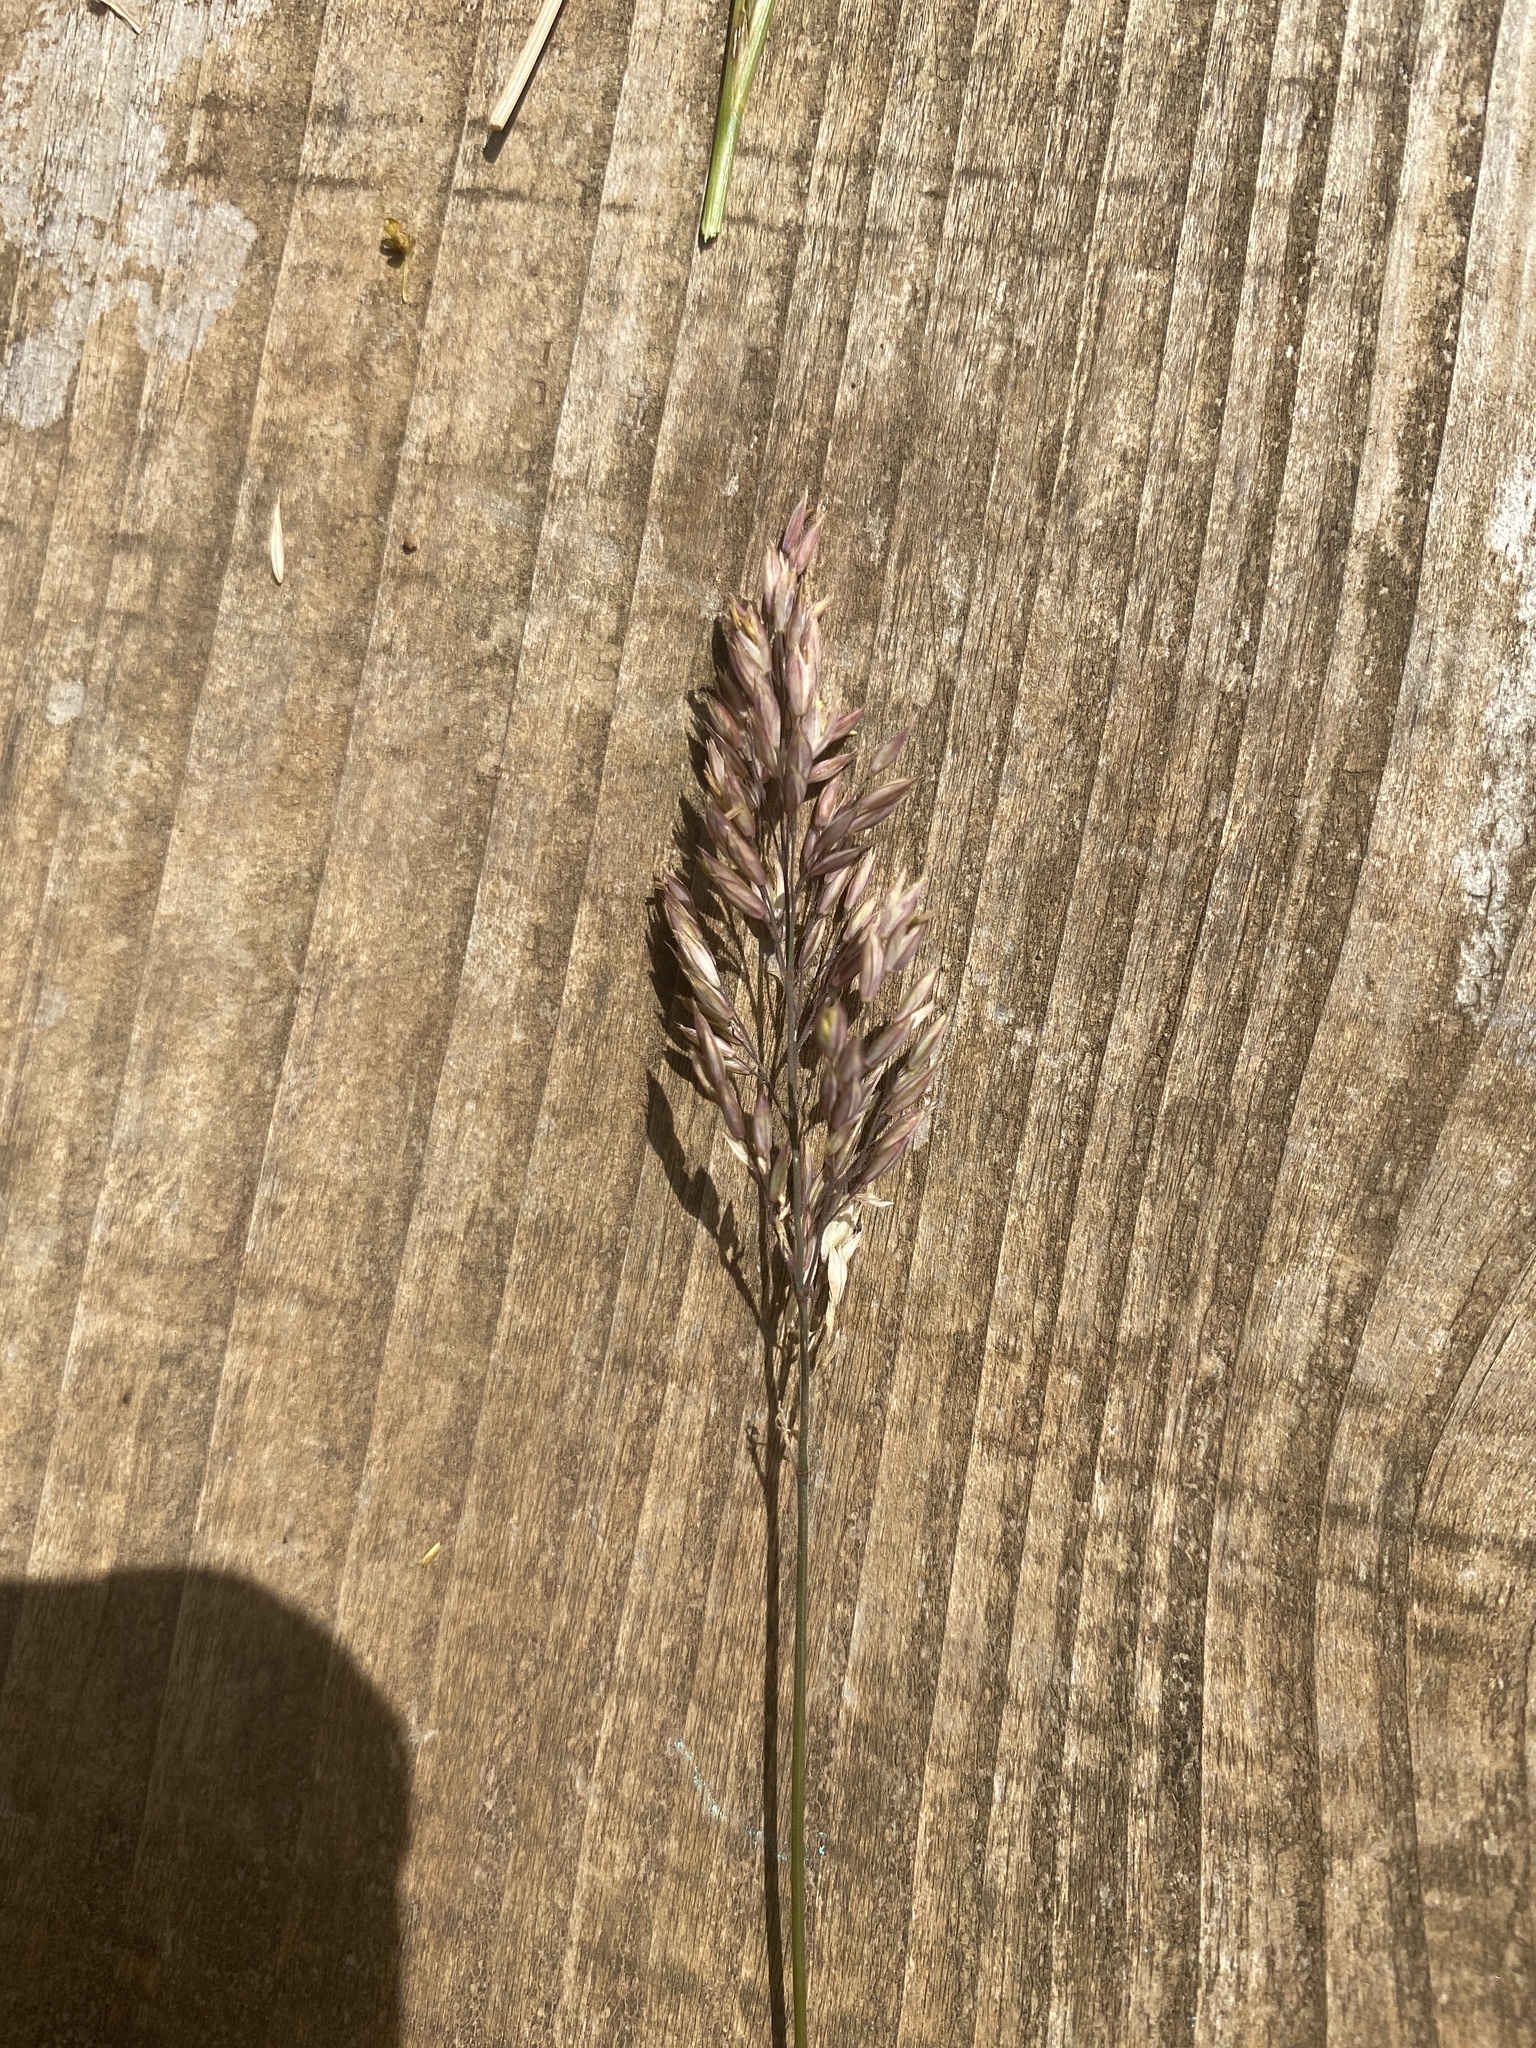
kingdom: Plantae
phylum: Tracheophyta
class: Liliopsida
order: Poales
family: Poaceae
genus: Holcus
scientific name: Holcus lanatus
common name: Yorkshire-fog
